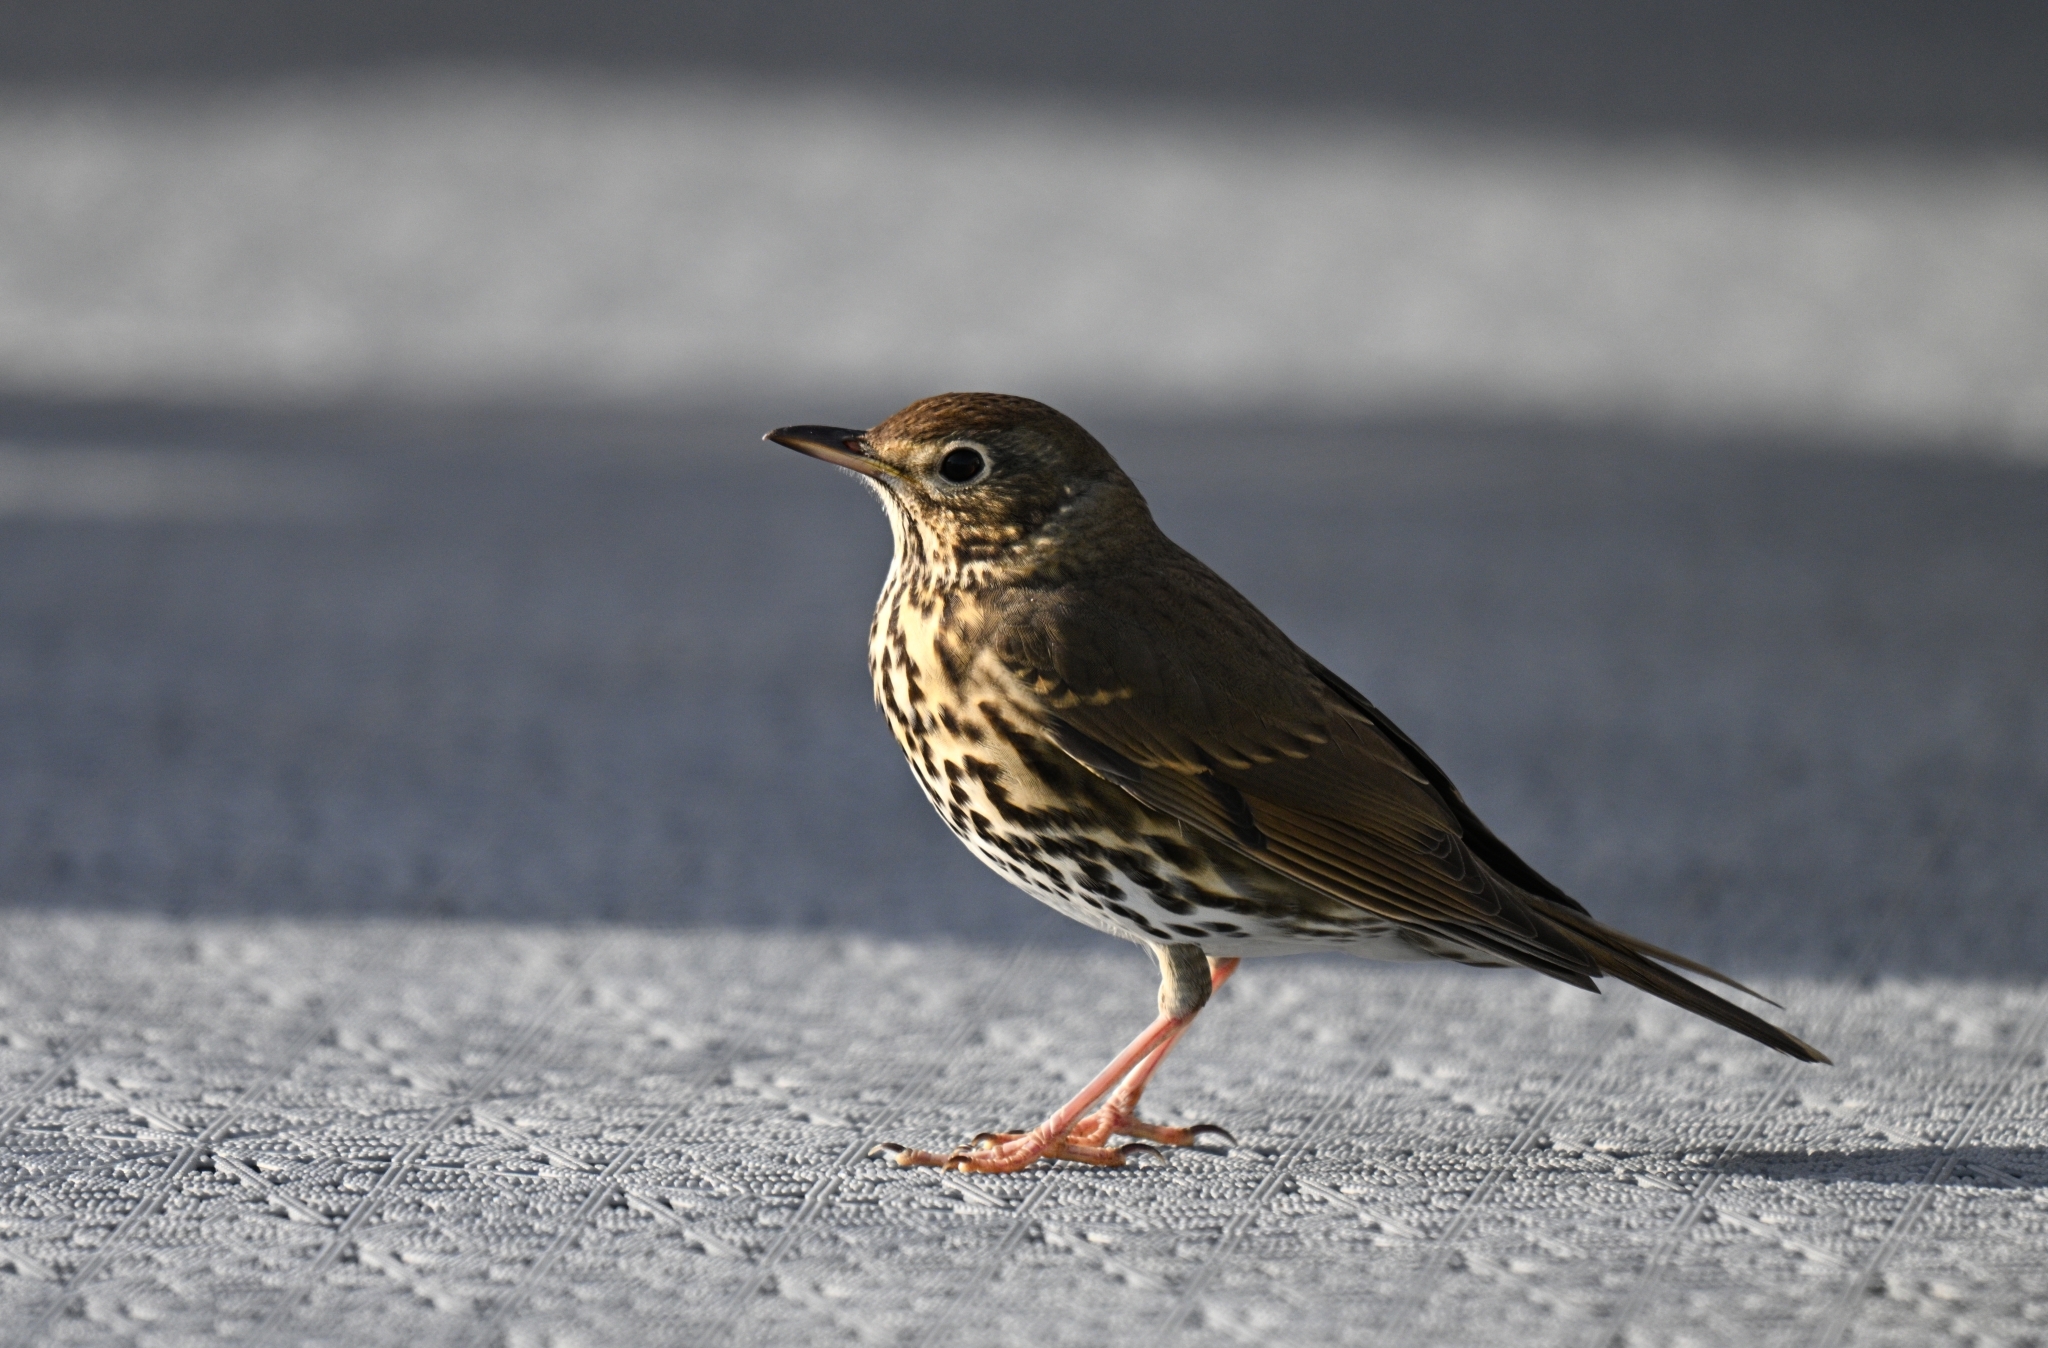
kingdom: Animalia
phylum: Chordata
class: Aves
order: Passeriformes
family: Turdidae
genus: Turdus
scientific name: Turdus philomelos
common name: Song thrush
